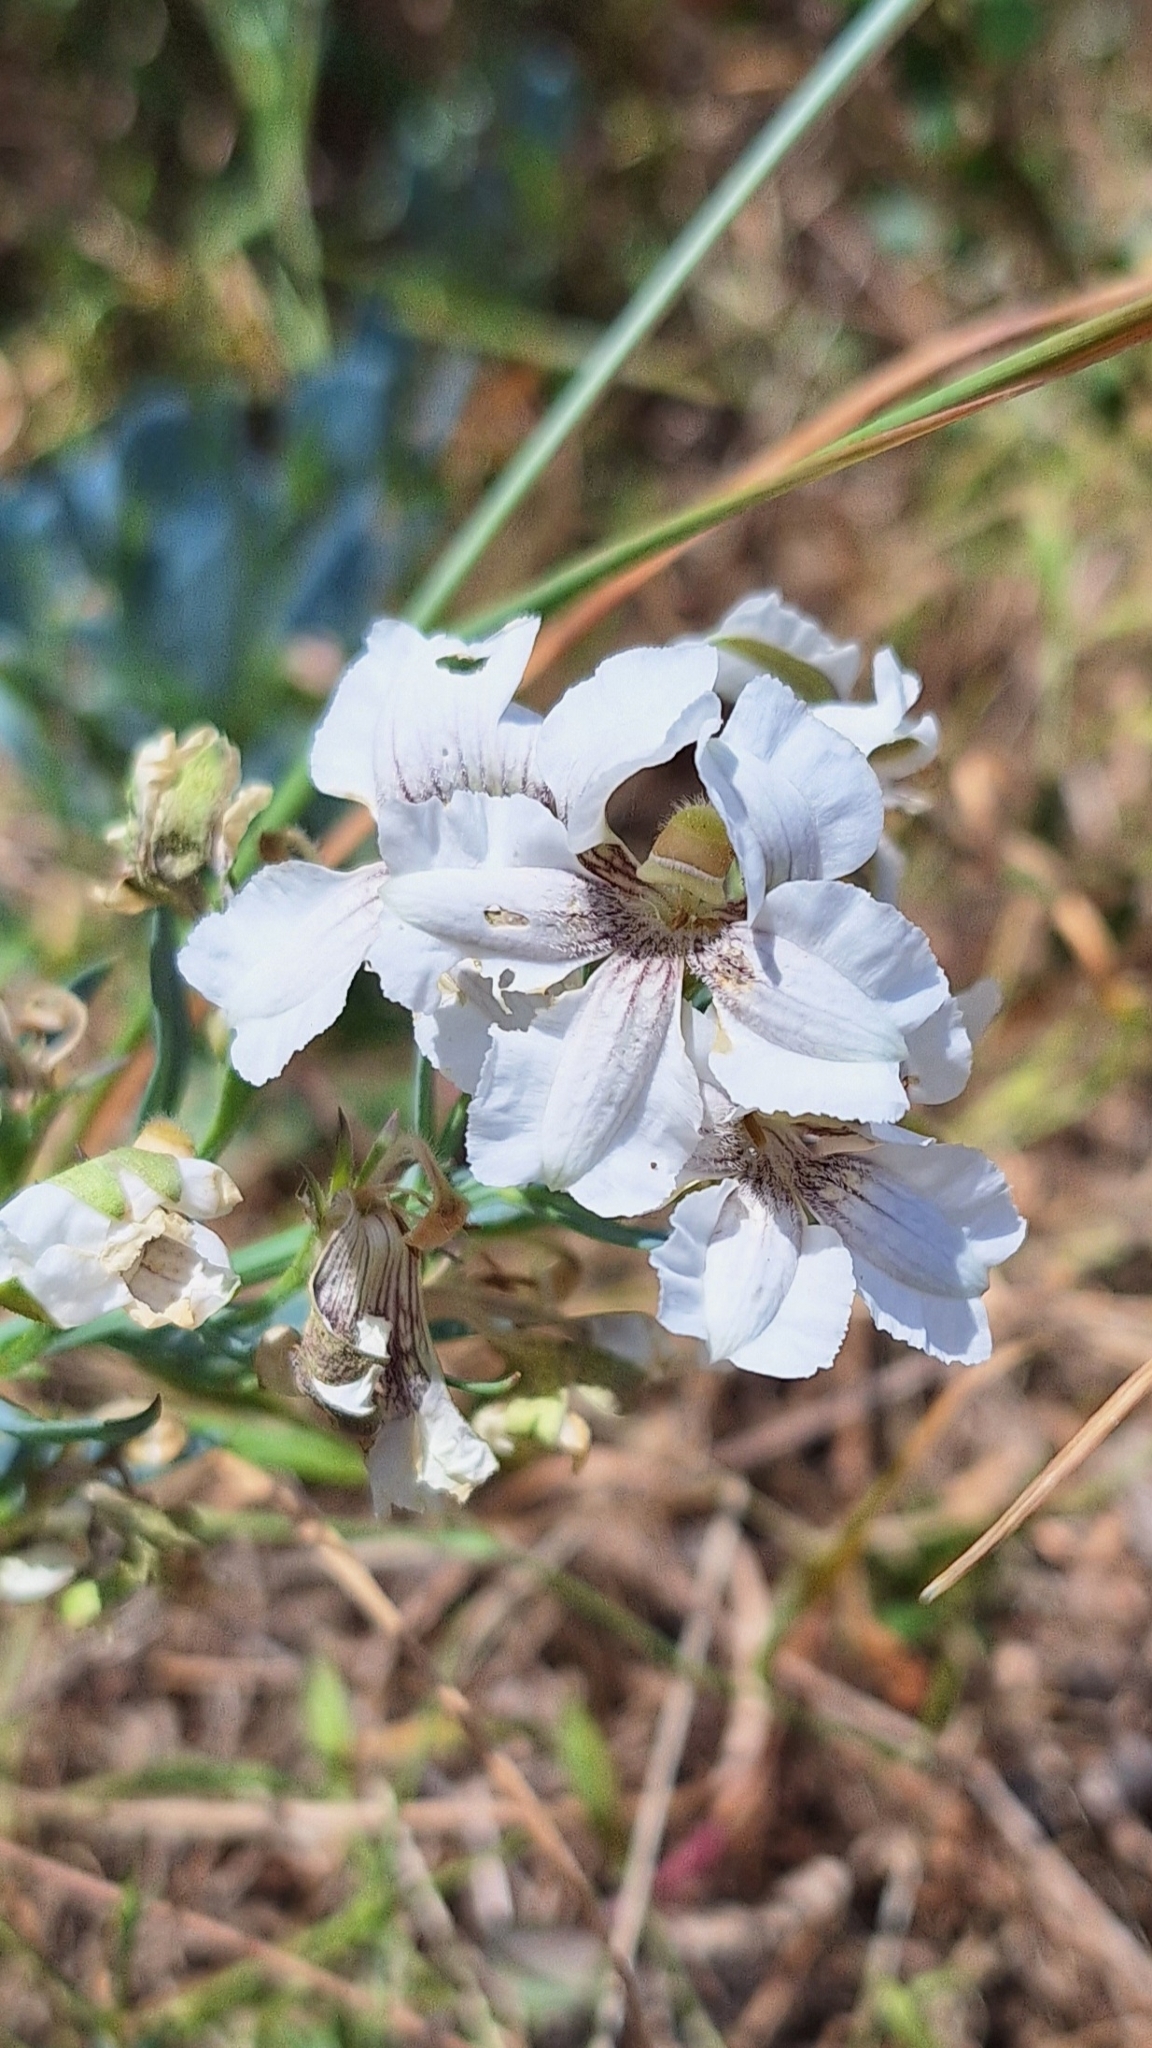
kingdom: Plantae
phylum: Tracheophyta
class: Magnoliopsida
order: Asterales
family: Goodeniaceae
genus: Goodenia
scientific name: Goodenia albiflora
